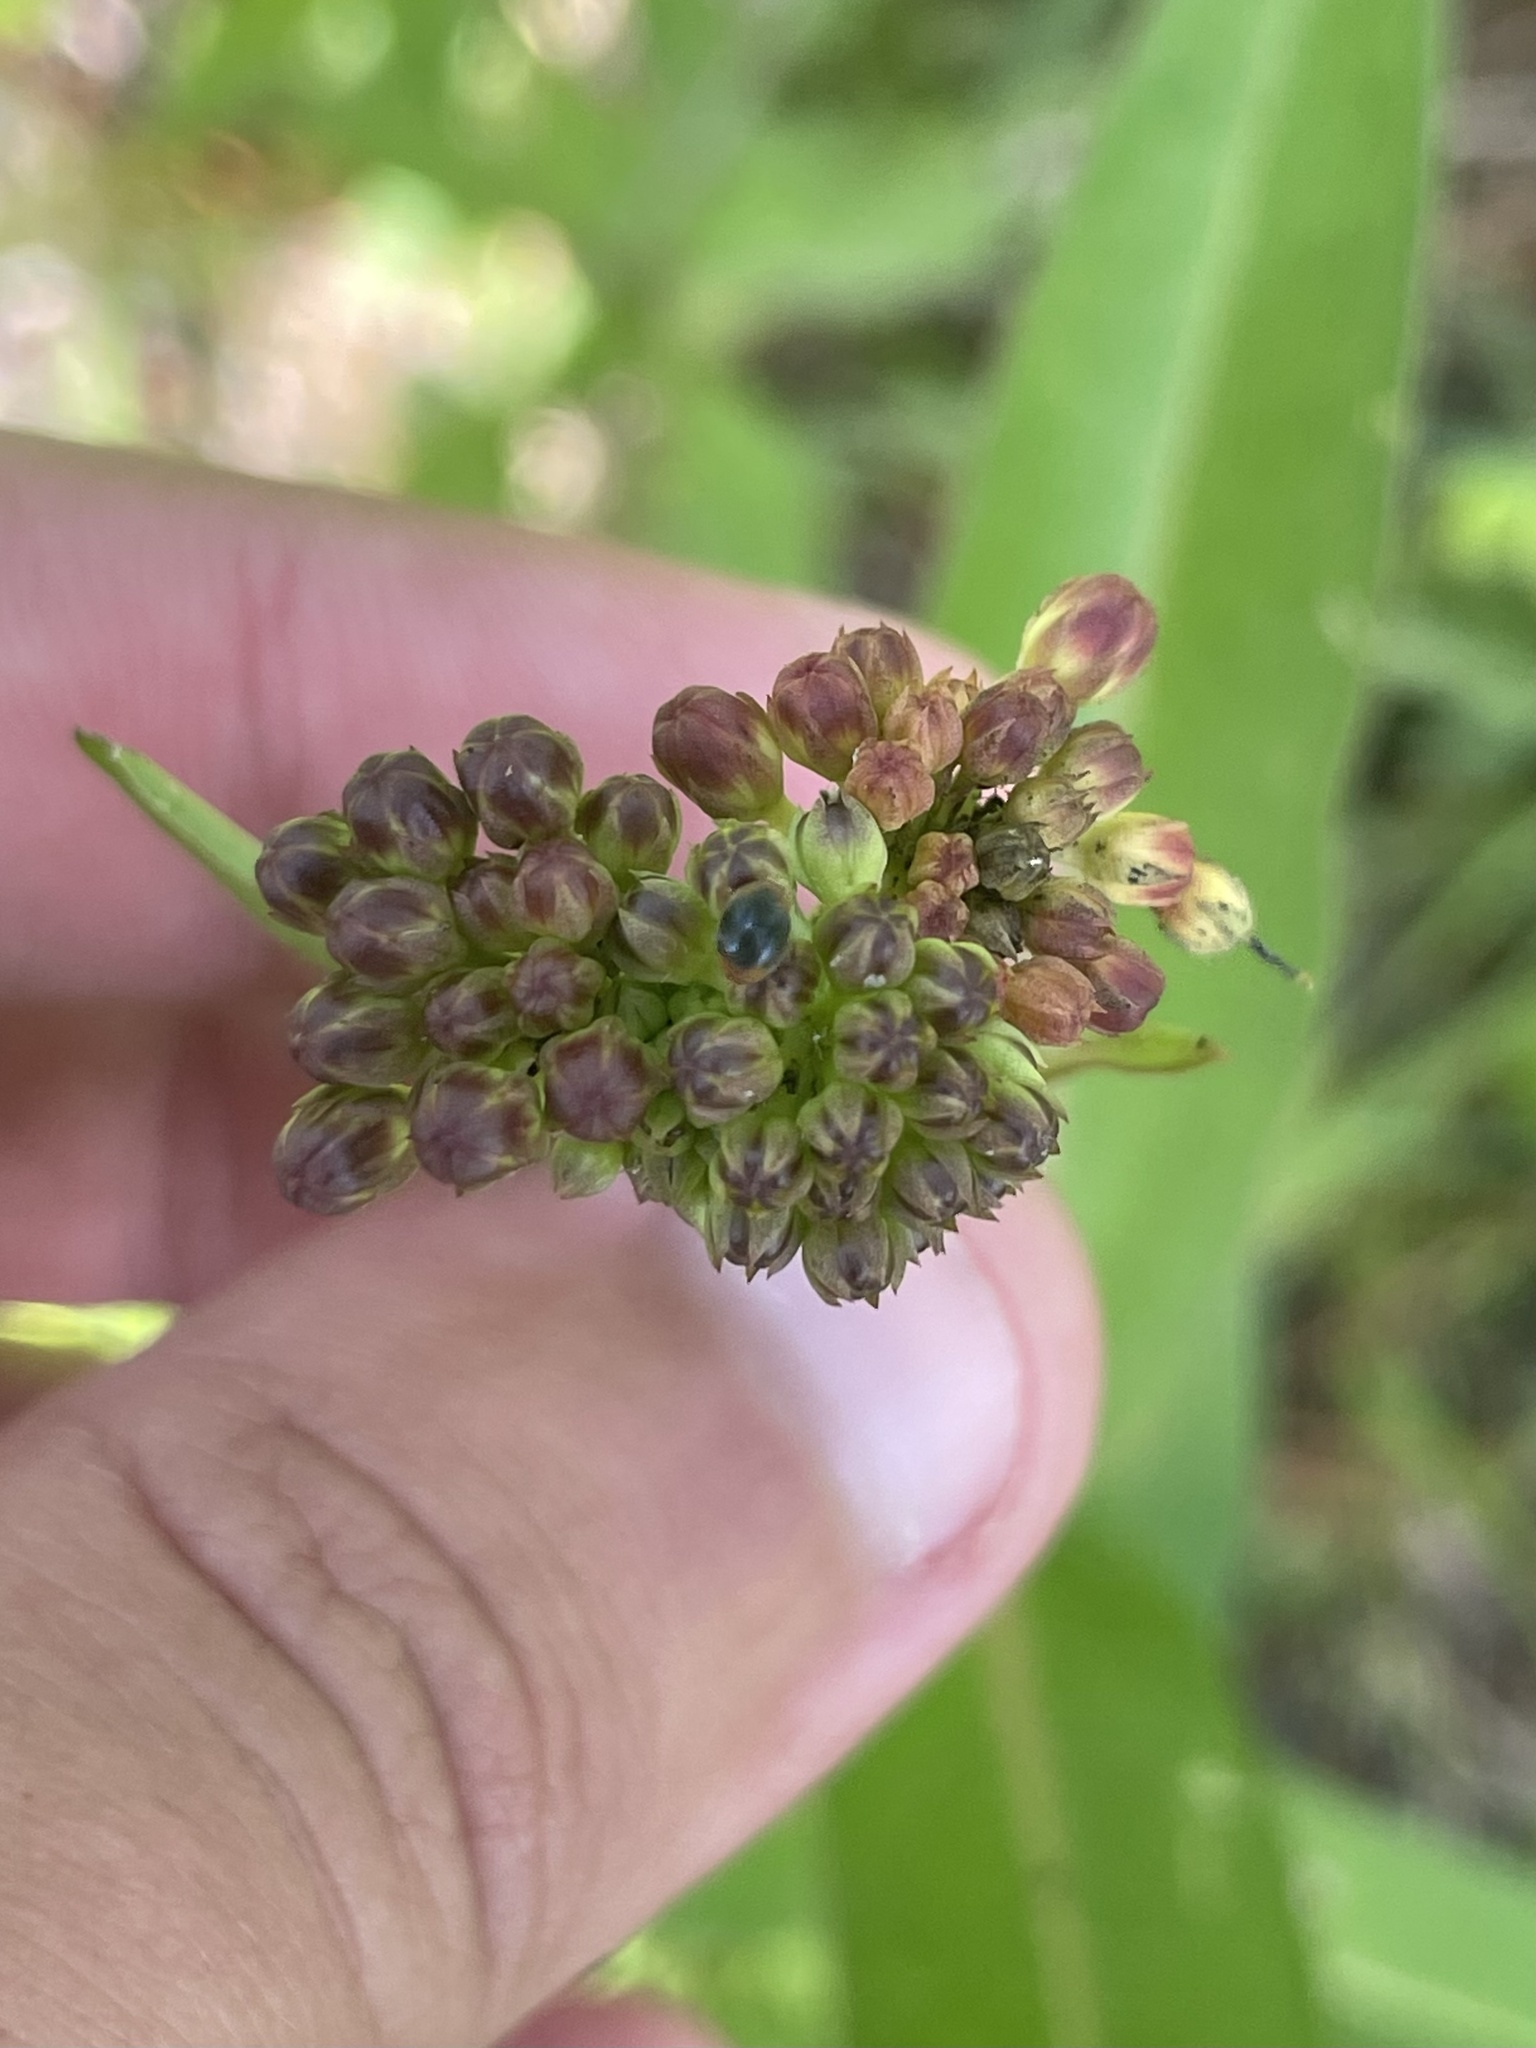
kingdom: Plantae
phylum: Tracheophyta
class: Magnoliopsida
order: Gentianales
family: Apocynaceae
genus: Asclepias
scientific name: Asclepias rubra
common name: Red milkweed
